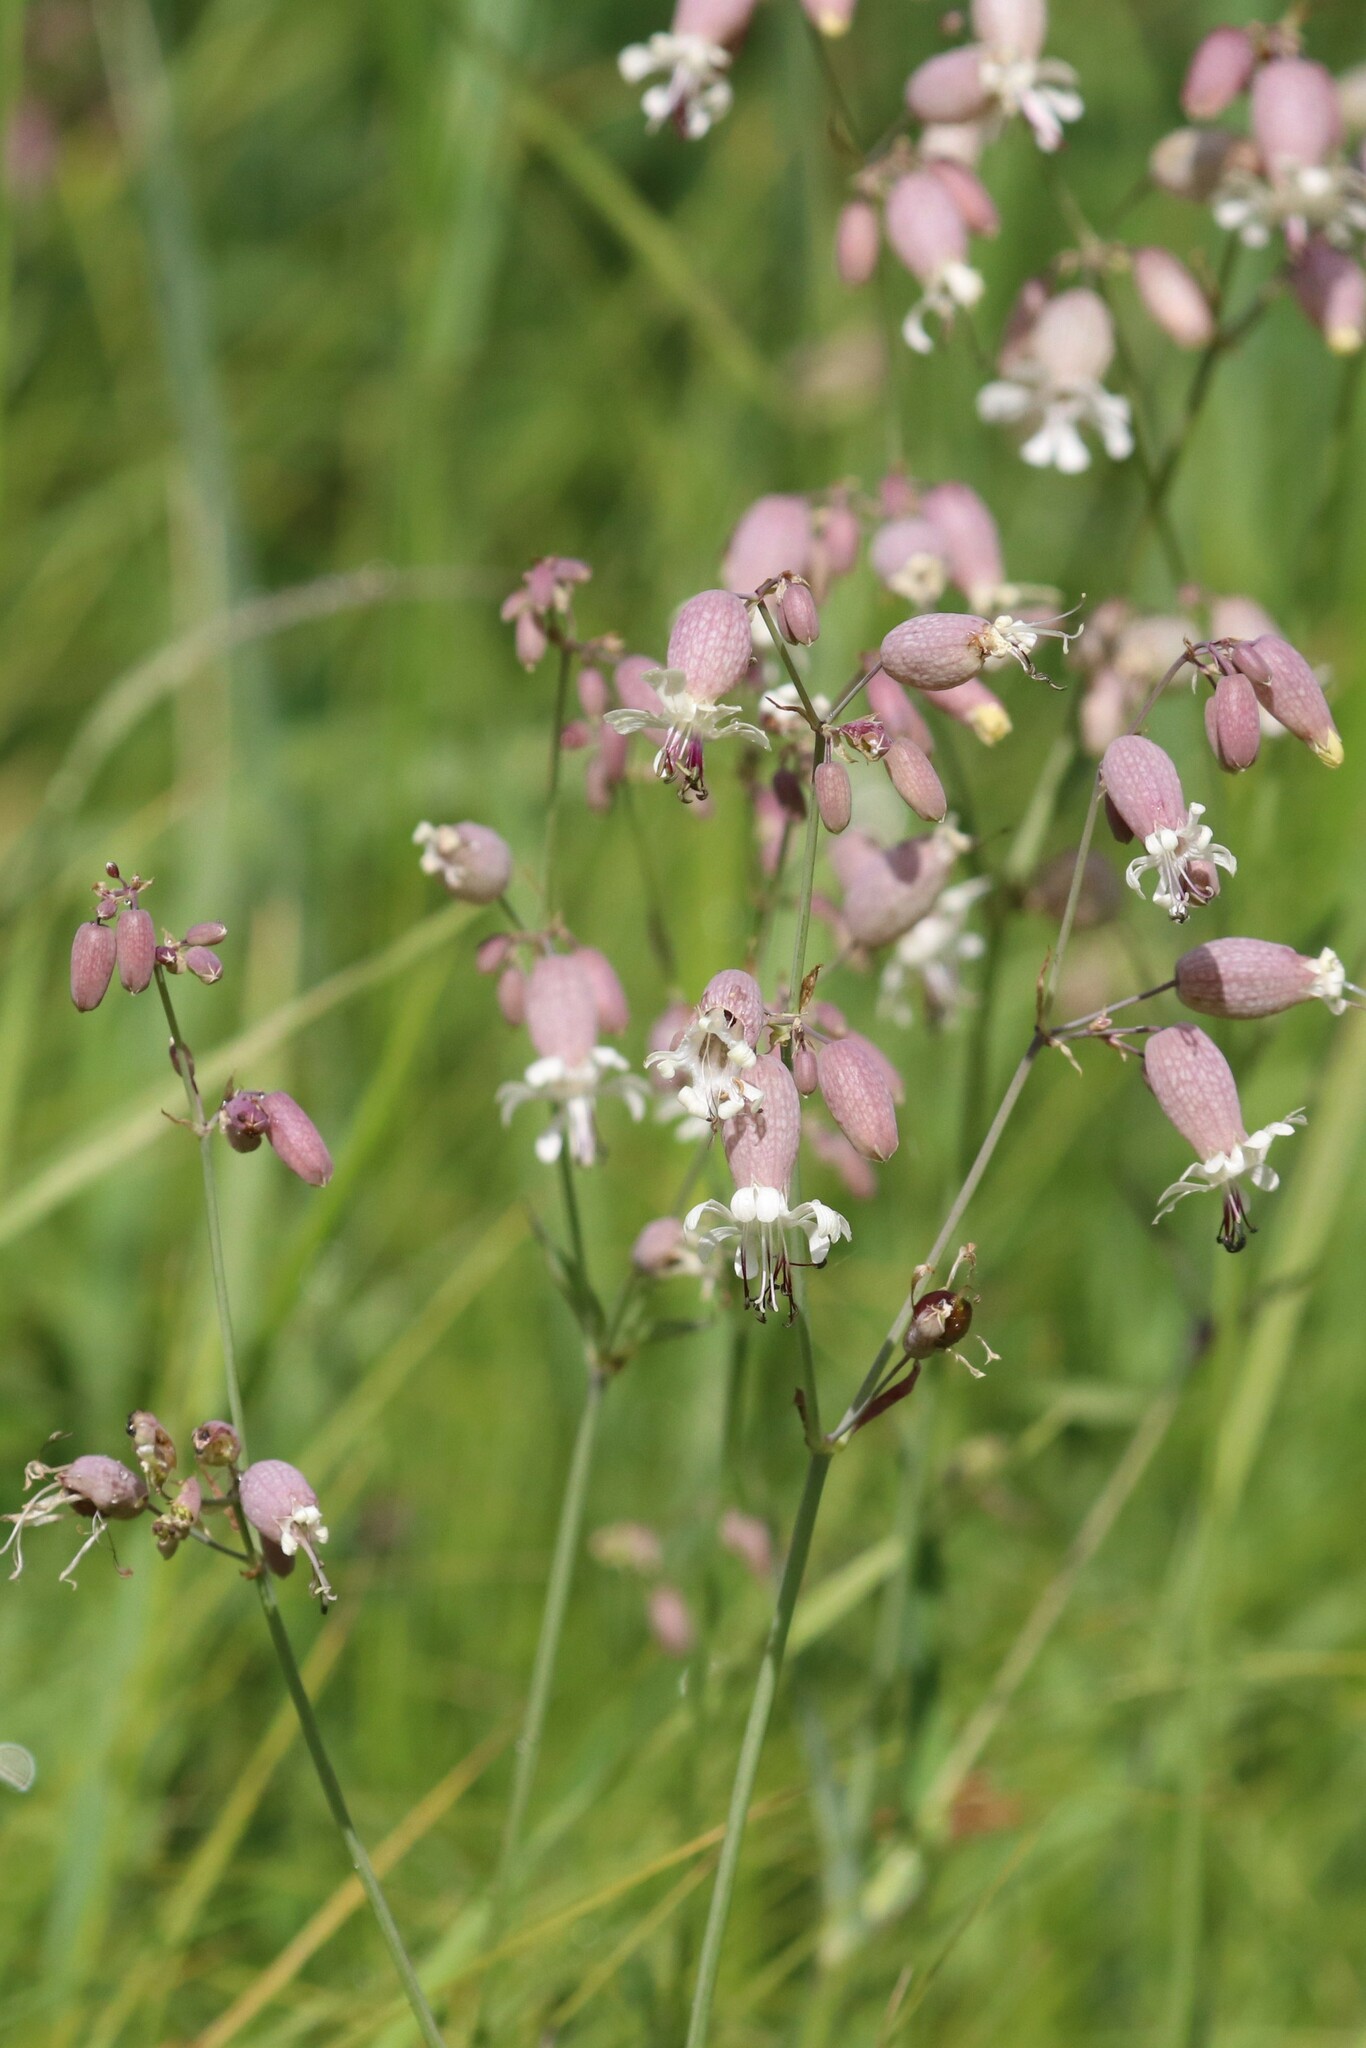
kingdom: Plantae
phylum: Tracheophyta
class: Magnoliopsida
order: Caryophyllales
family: Caryophyllaceae
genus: Silene
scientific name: Silene vulgaris
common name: Bladder campion
